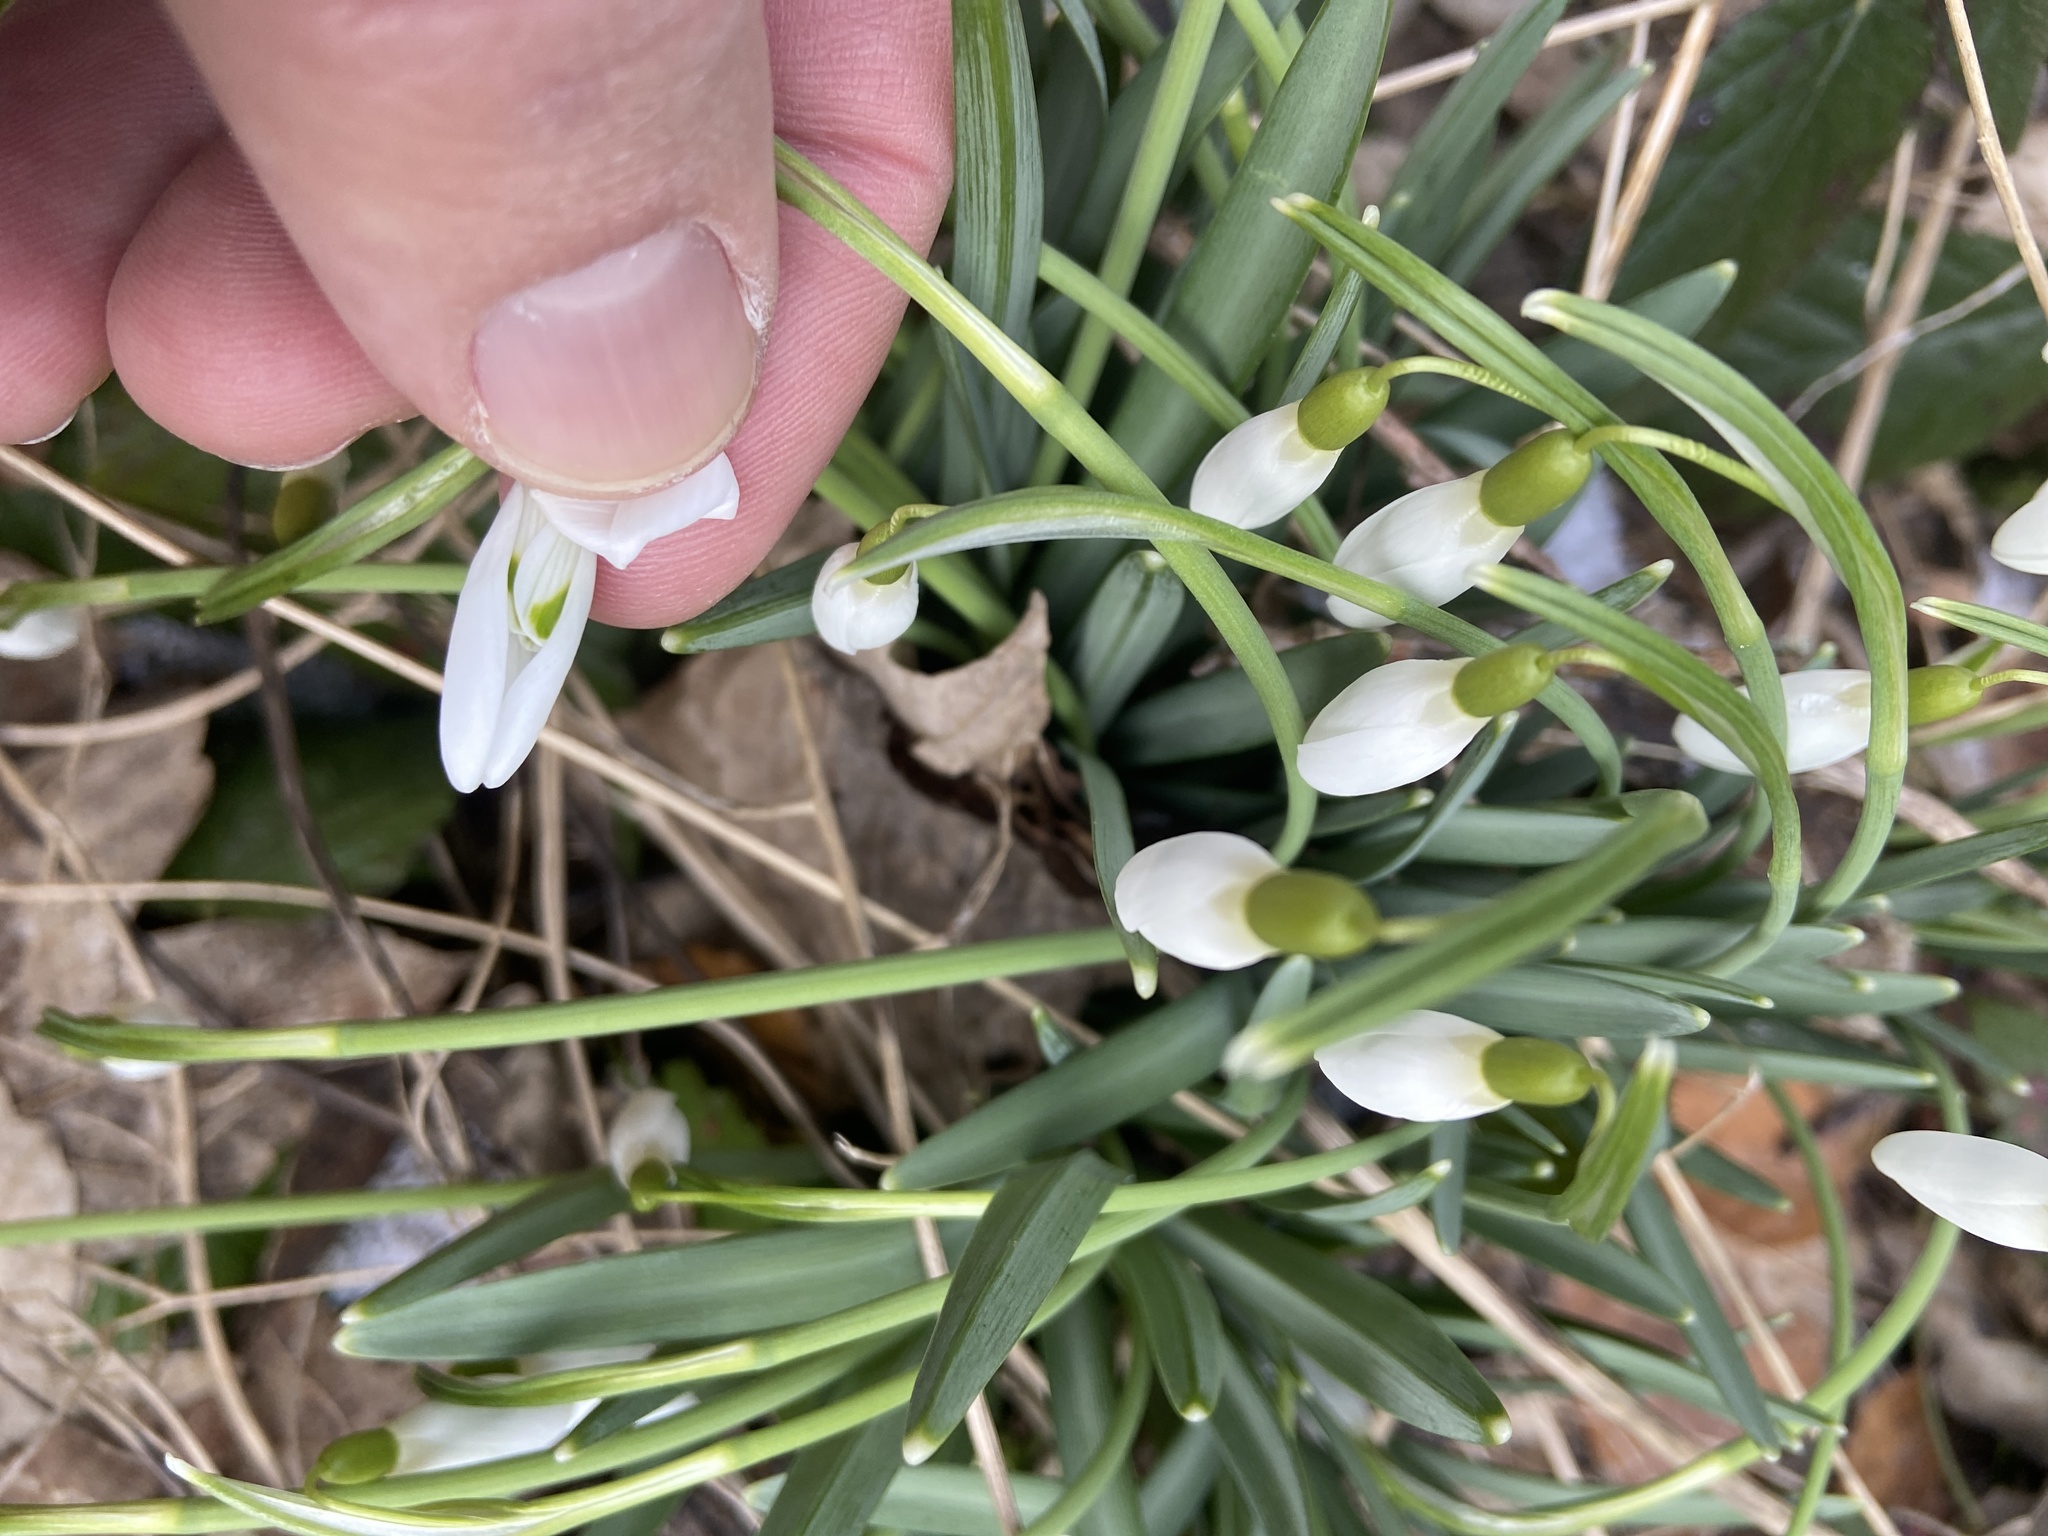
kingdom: Plantae
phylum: Tracheophyta
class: Liliopsida
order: Asparagales
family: Amaryllidaceae
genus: Galanthus
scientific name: Galanthus nivalis
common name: Snowdrop
